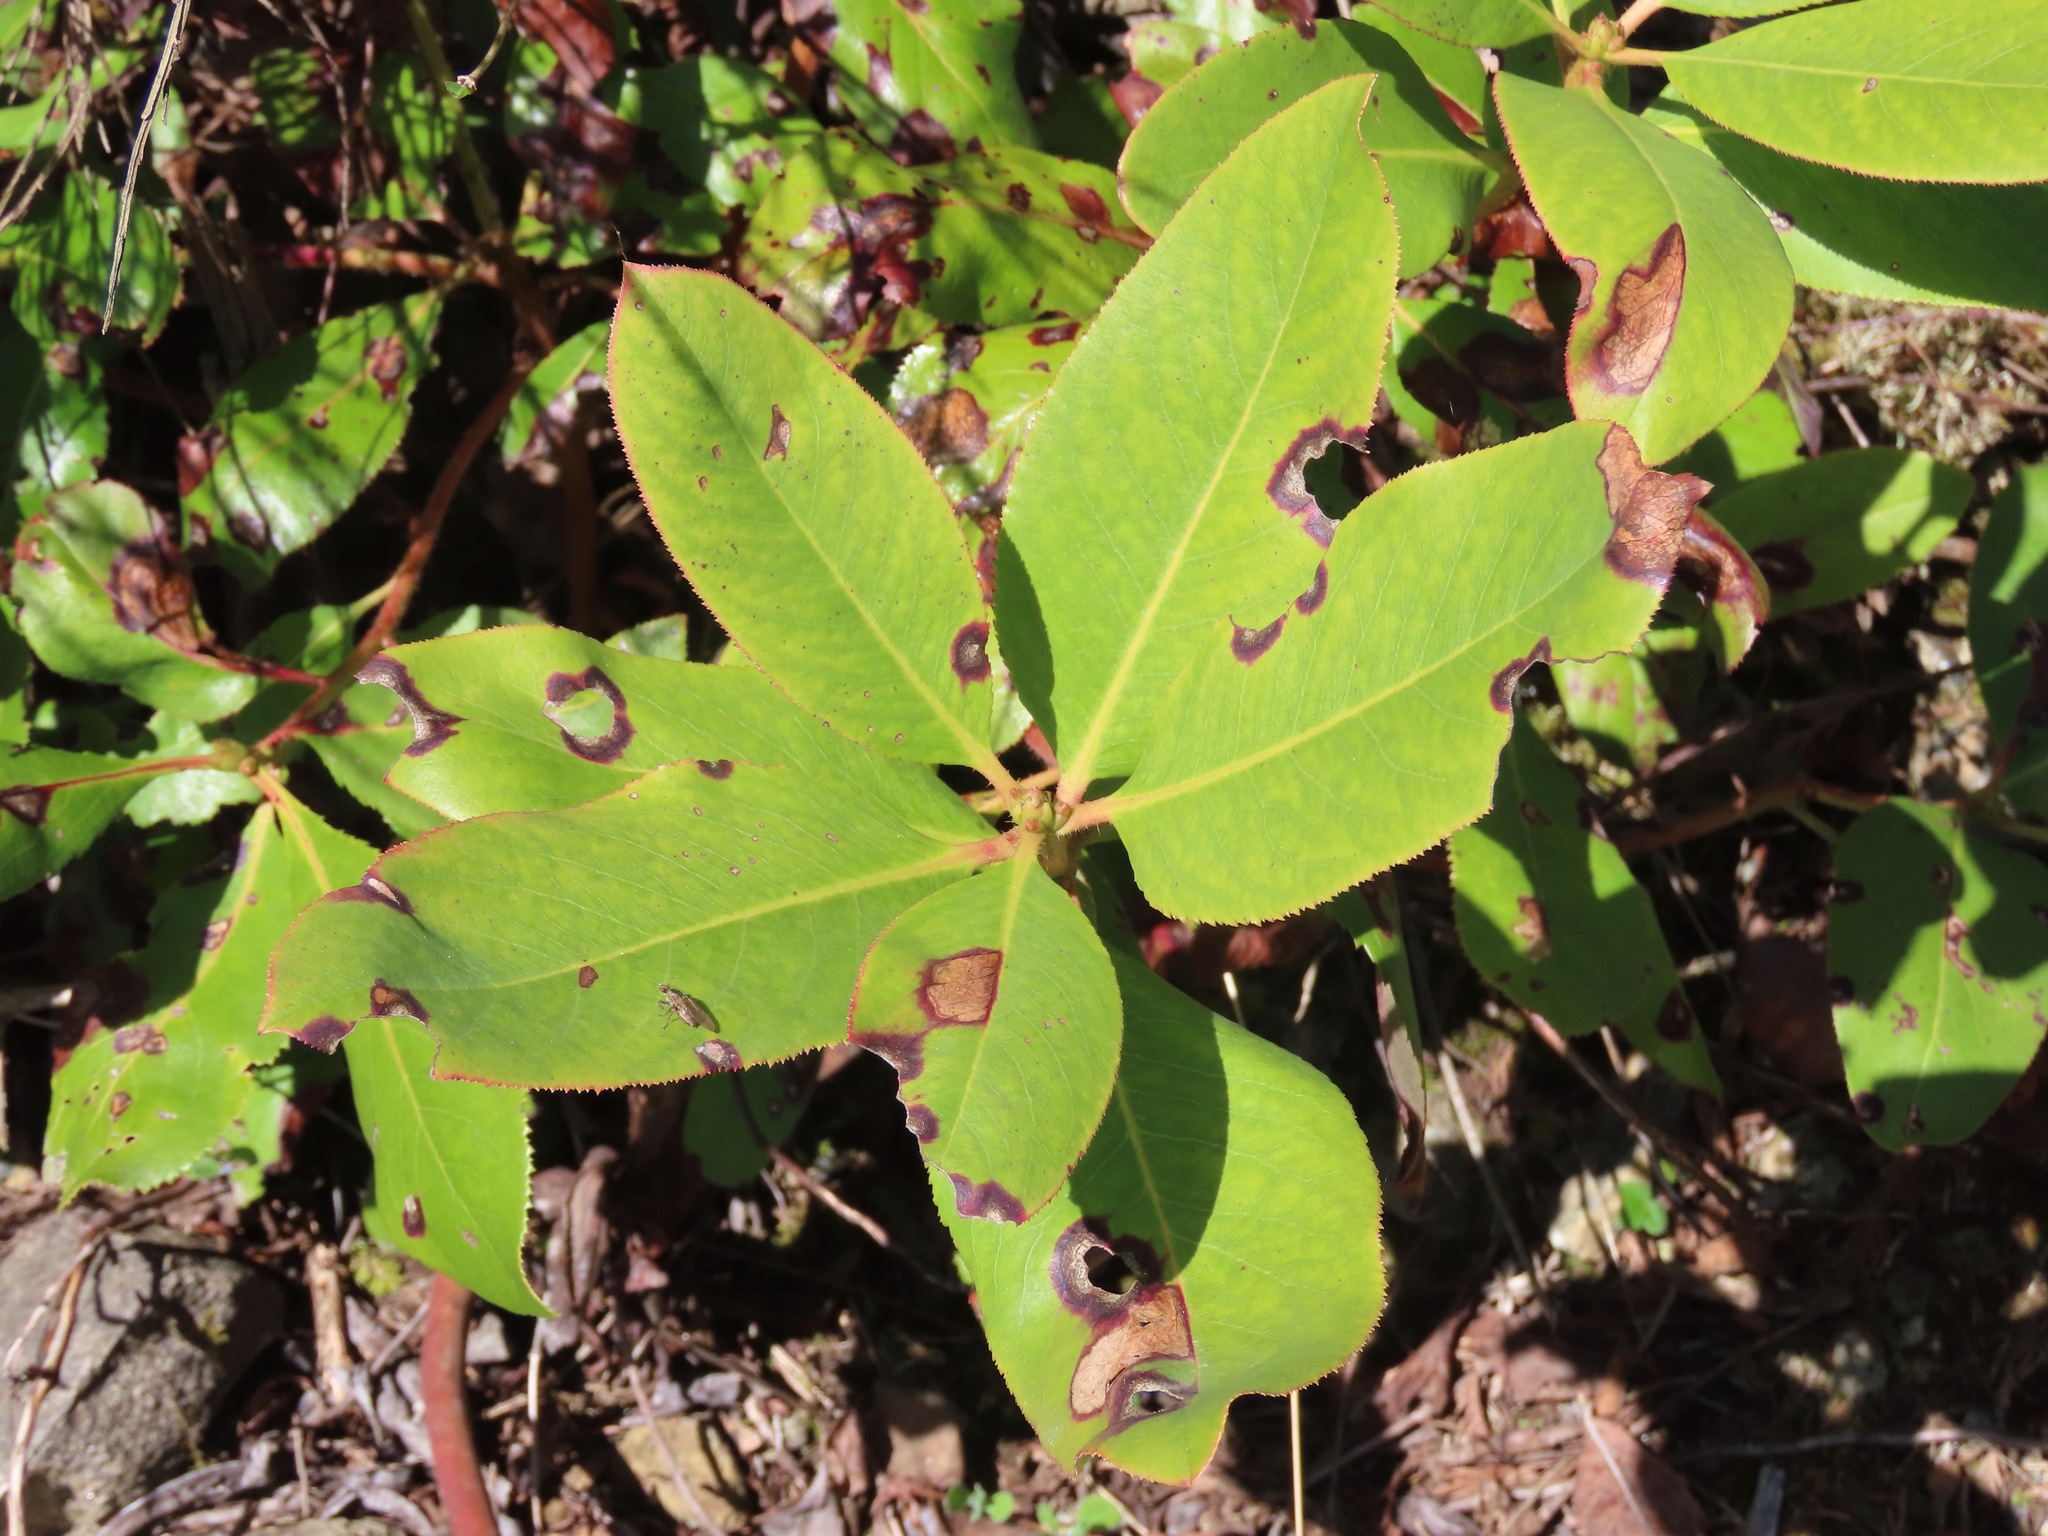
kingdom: Plantae
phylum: Tracheophyta
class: Magnoliopsida
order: Ericales
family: Ericaceae
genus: Arbutus
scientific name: Arbutus menziesii
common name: Pacific madrone
